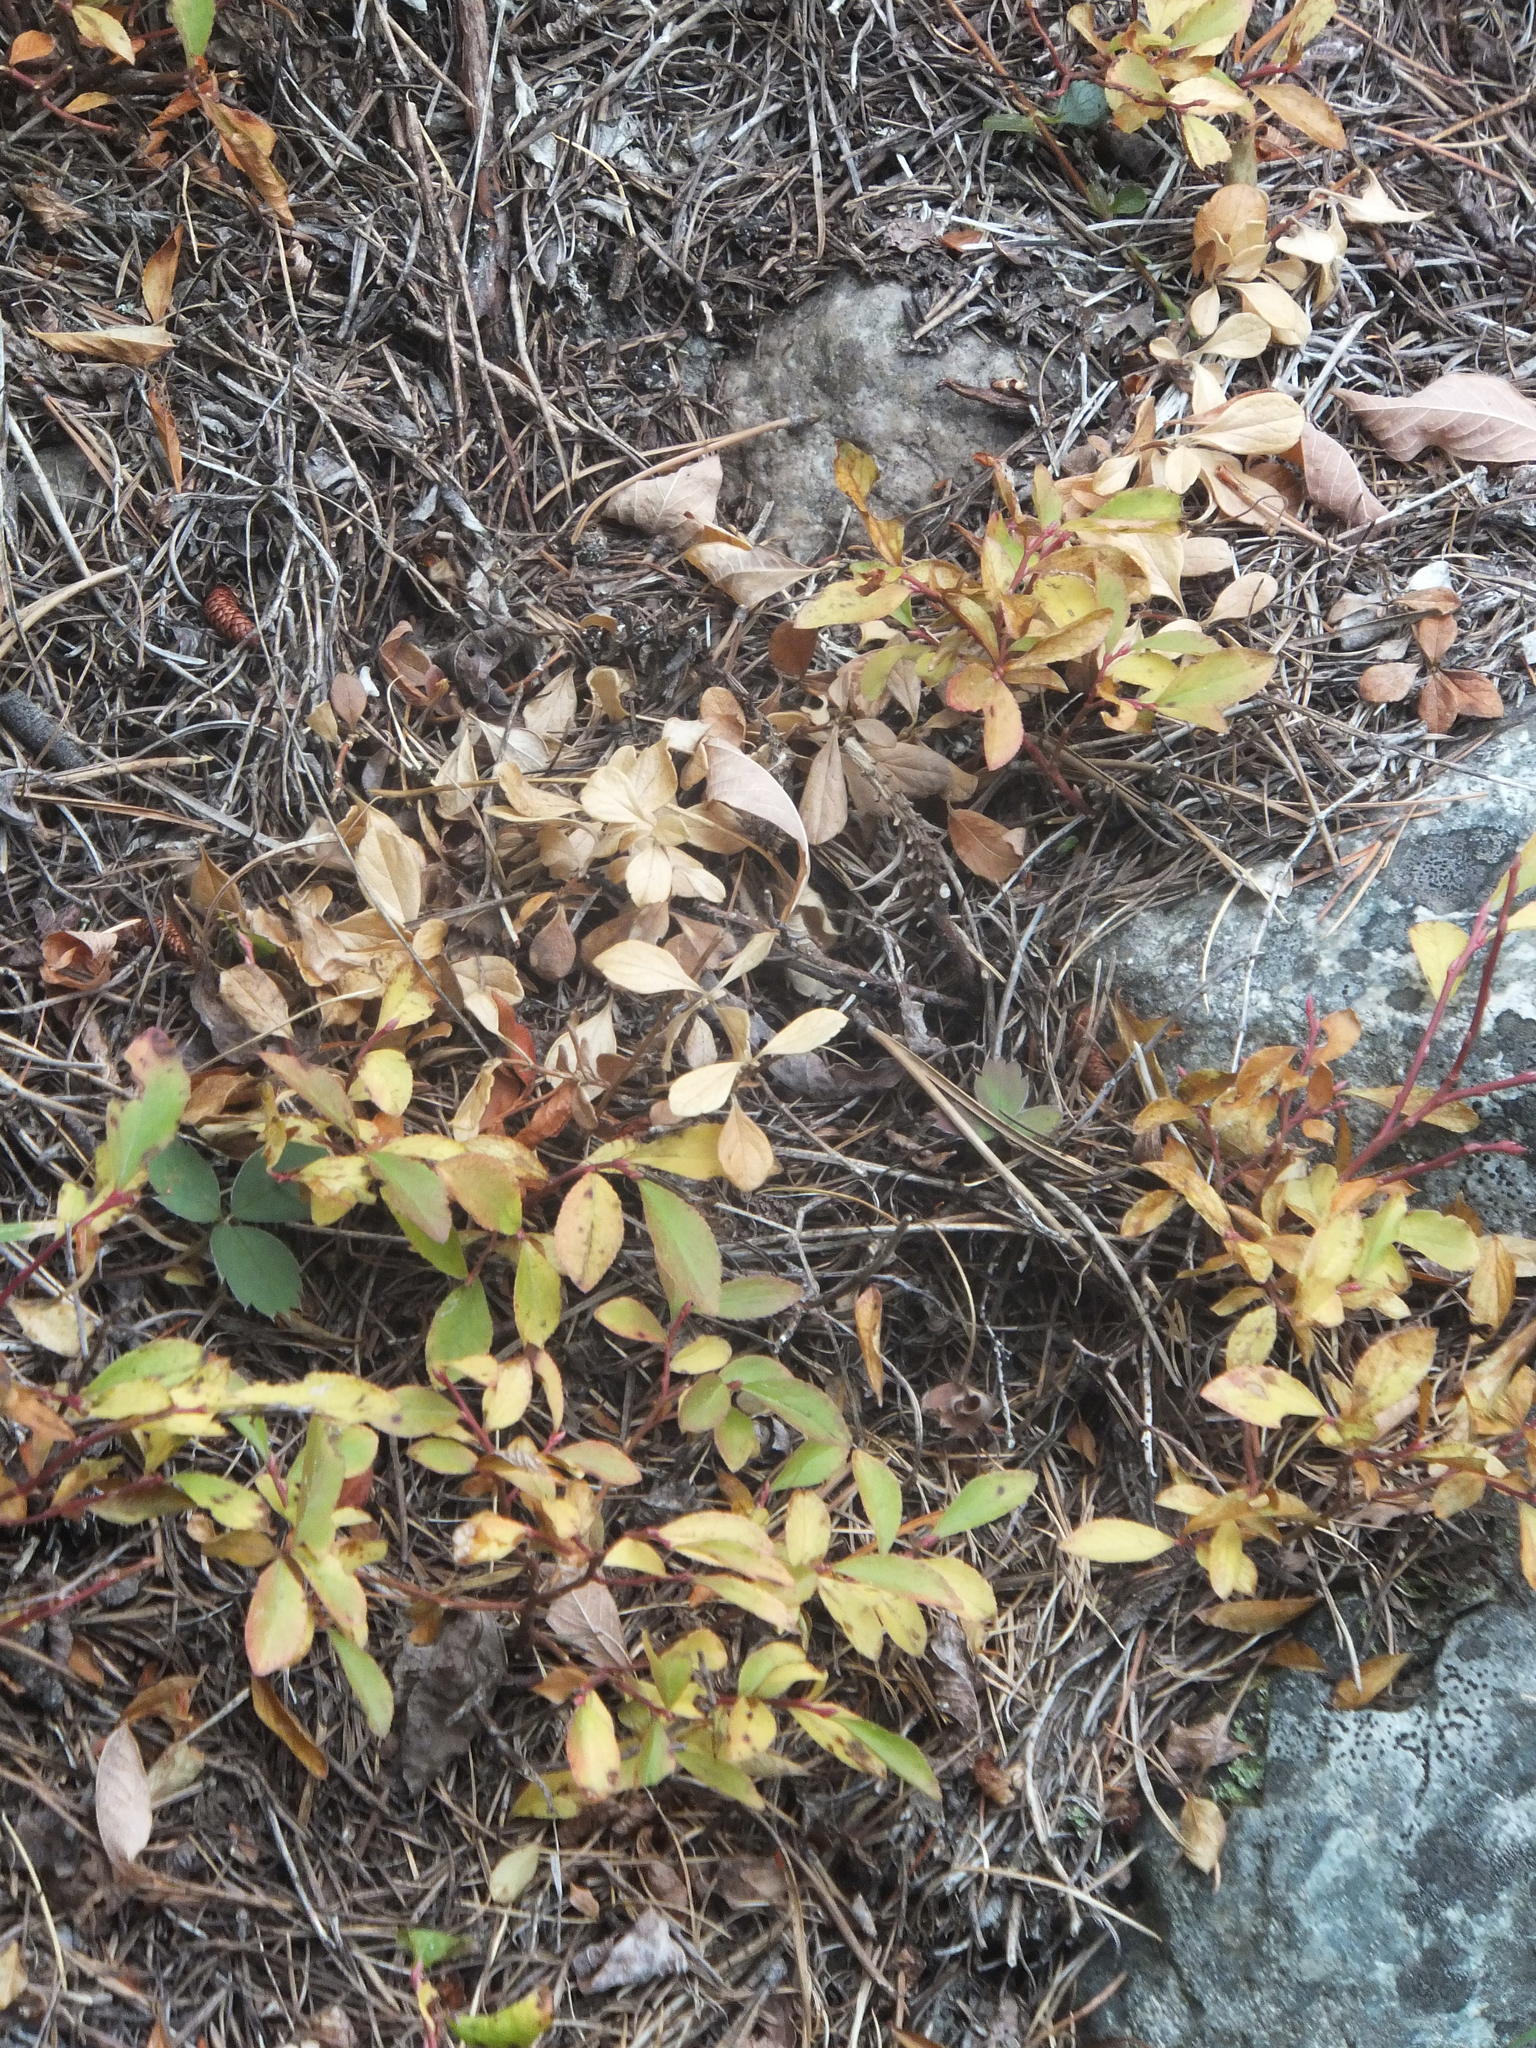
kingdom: Plantae
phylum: Tracheophyta
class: Magnoliopsida
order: Ericales
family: Ericaceae
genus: Vaccinium
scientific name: Vaccinium cespitosum
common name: Dwarf bilberry
